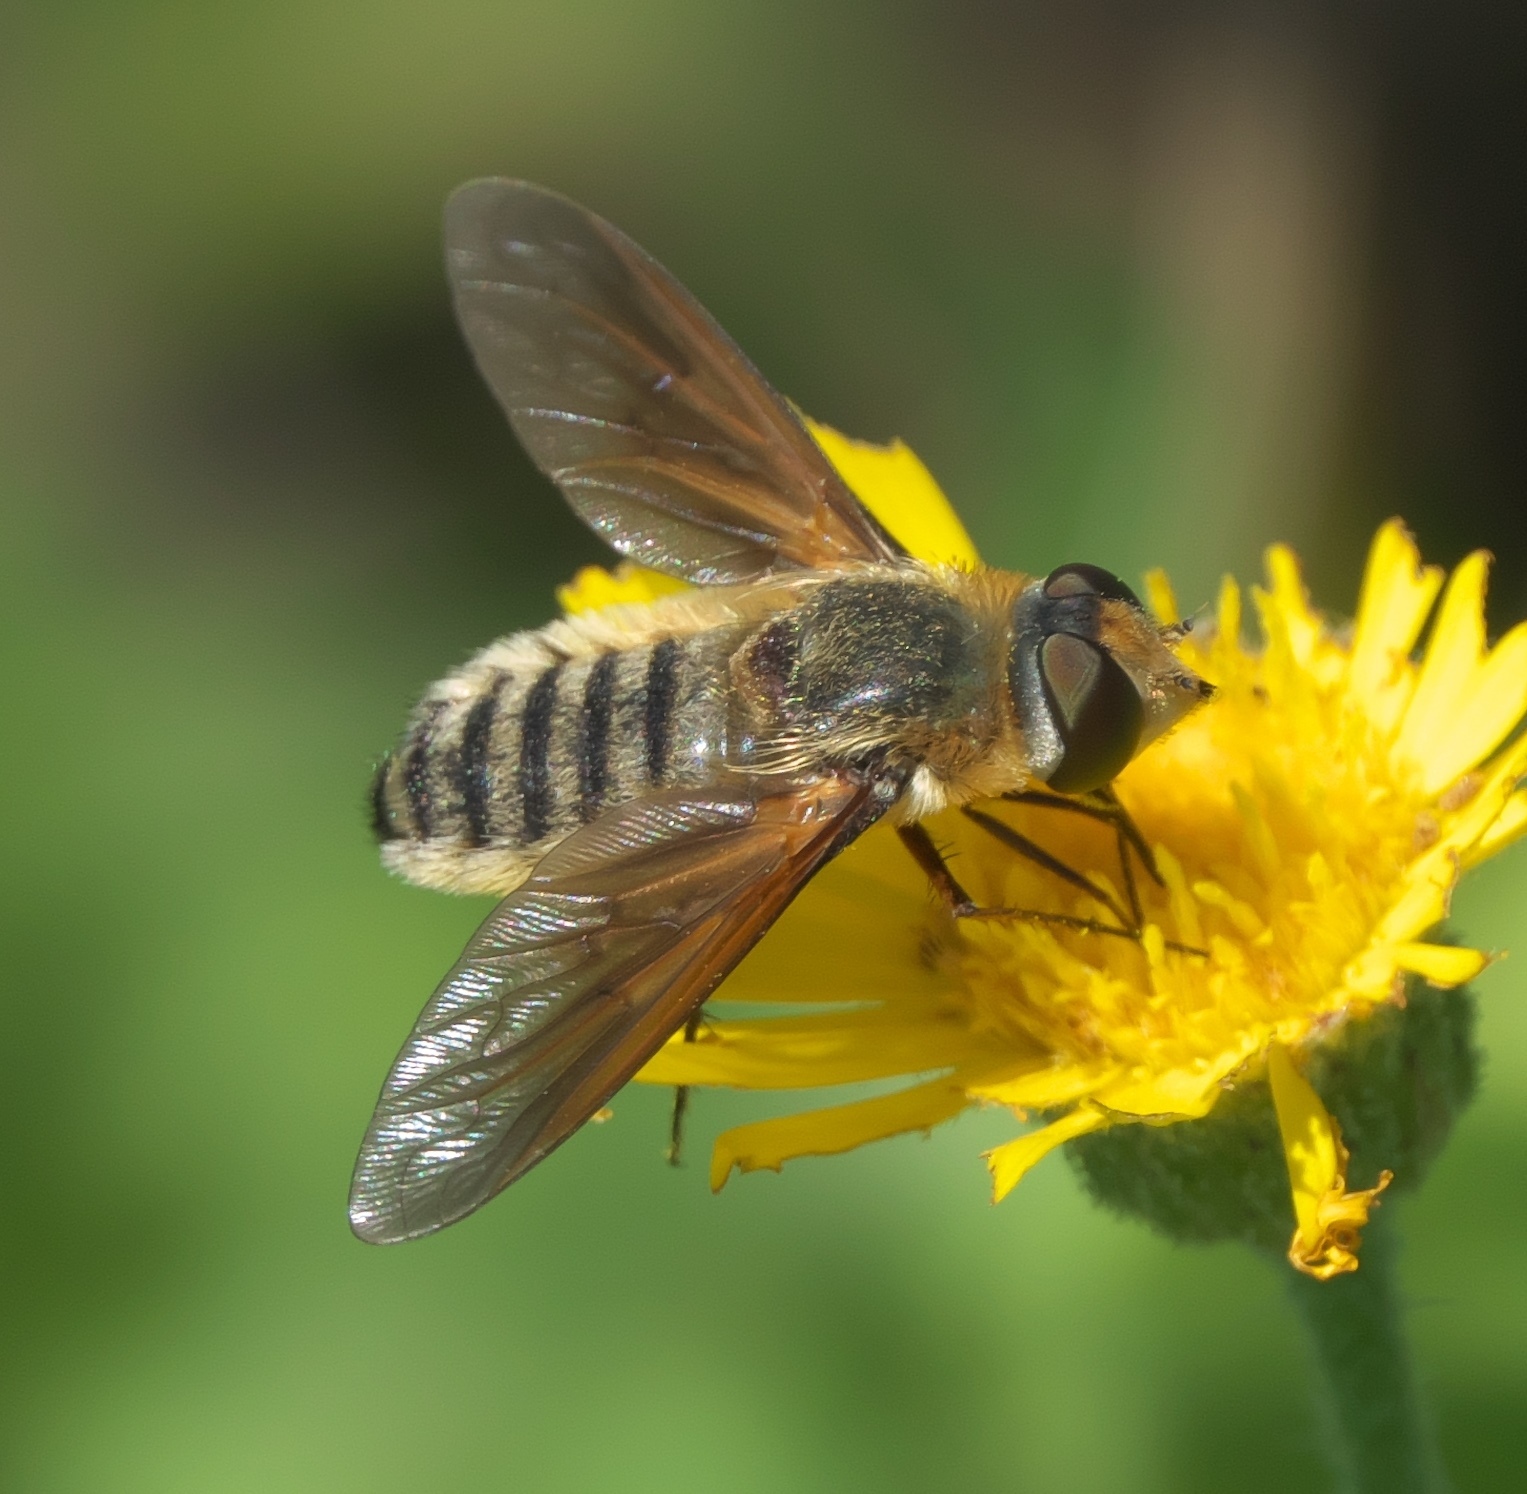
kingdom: Animalia
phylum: Arthropoda
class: Insecta
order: Diptera
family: Bombyliidae
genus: Poecilanthrax
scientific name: Poecilanthrax lucifer
